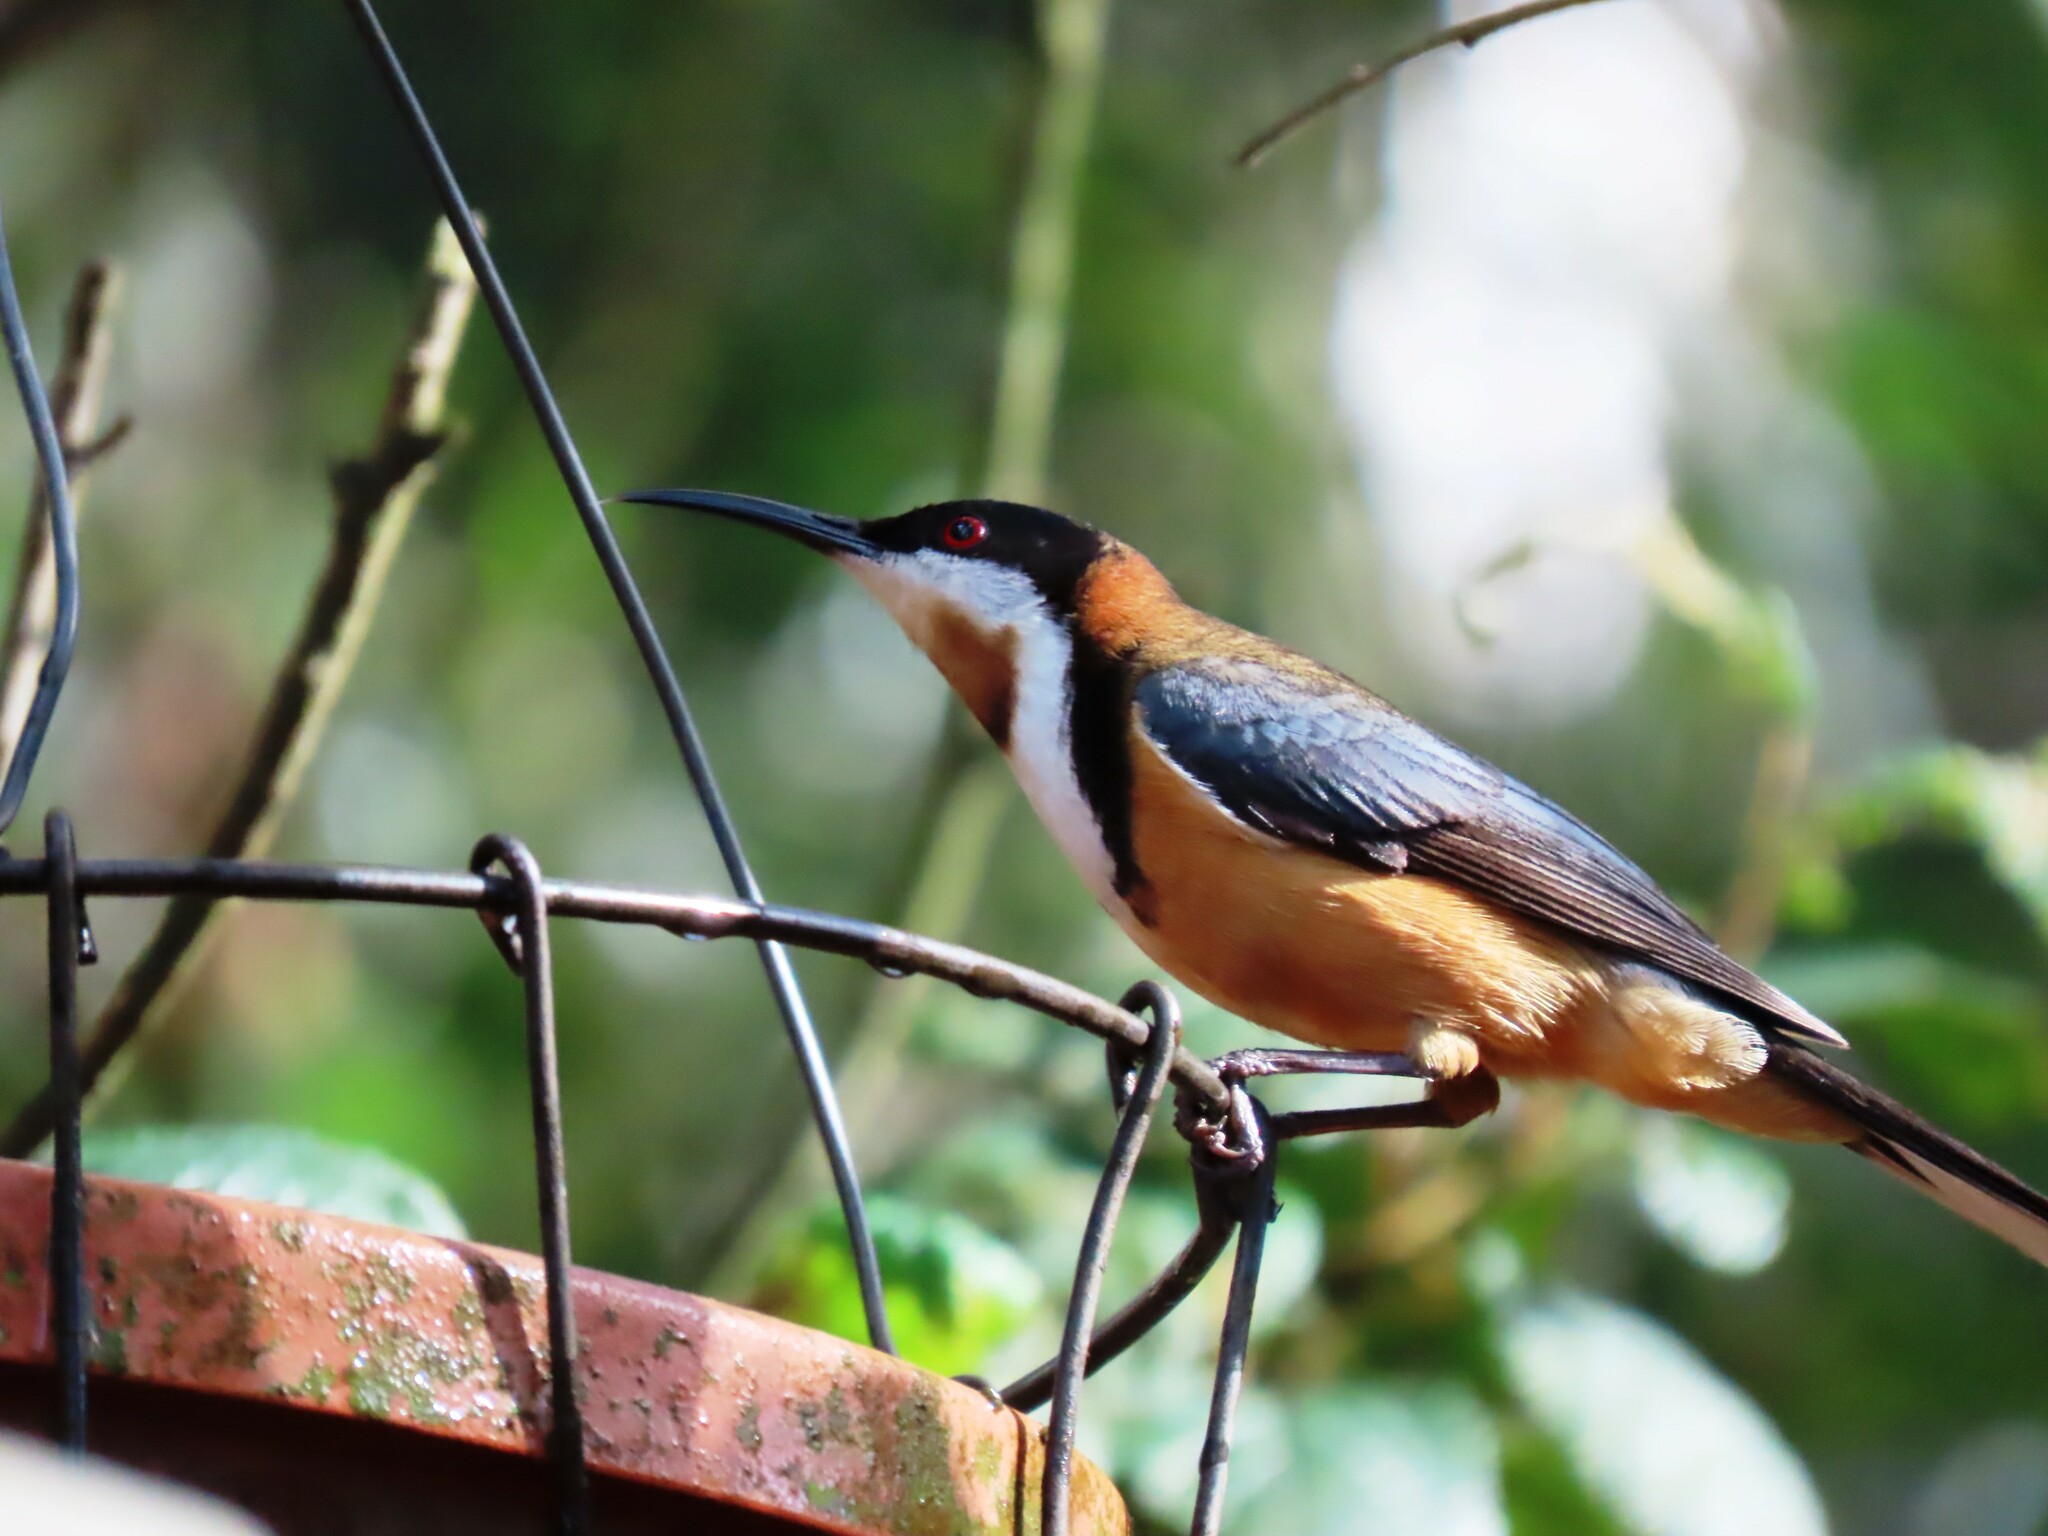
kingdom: Animalia
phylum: Chordata
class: Aves
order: Passeriformes
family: Meliphagidae
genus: Acanthorhynchus
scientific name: Acanthorhynchus tenuirostris
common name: Eastern spinebill
